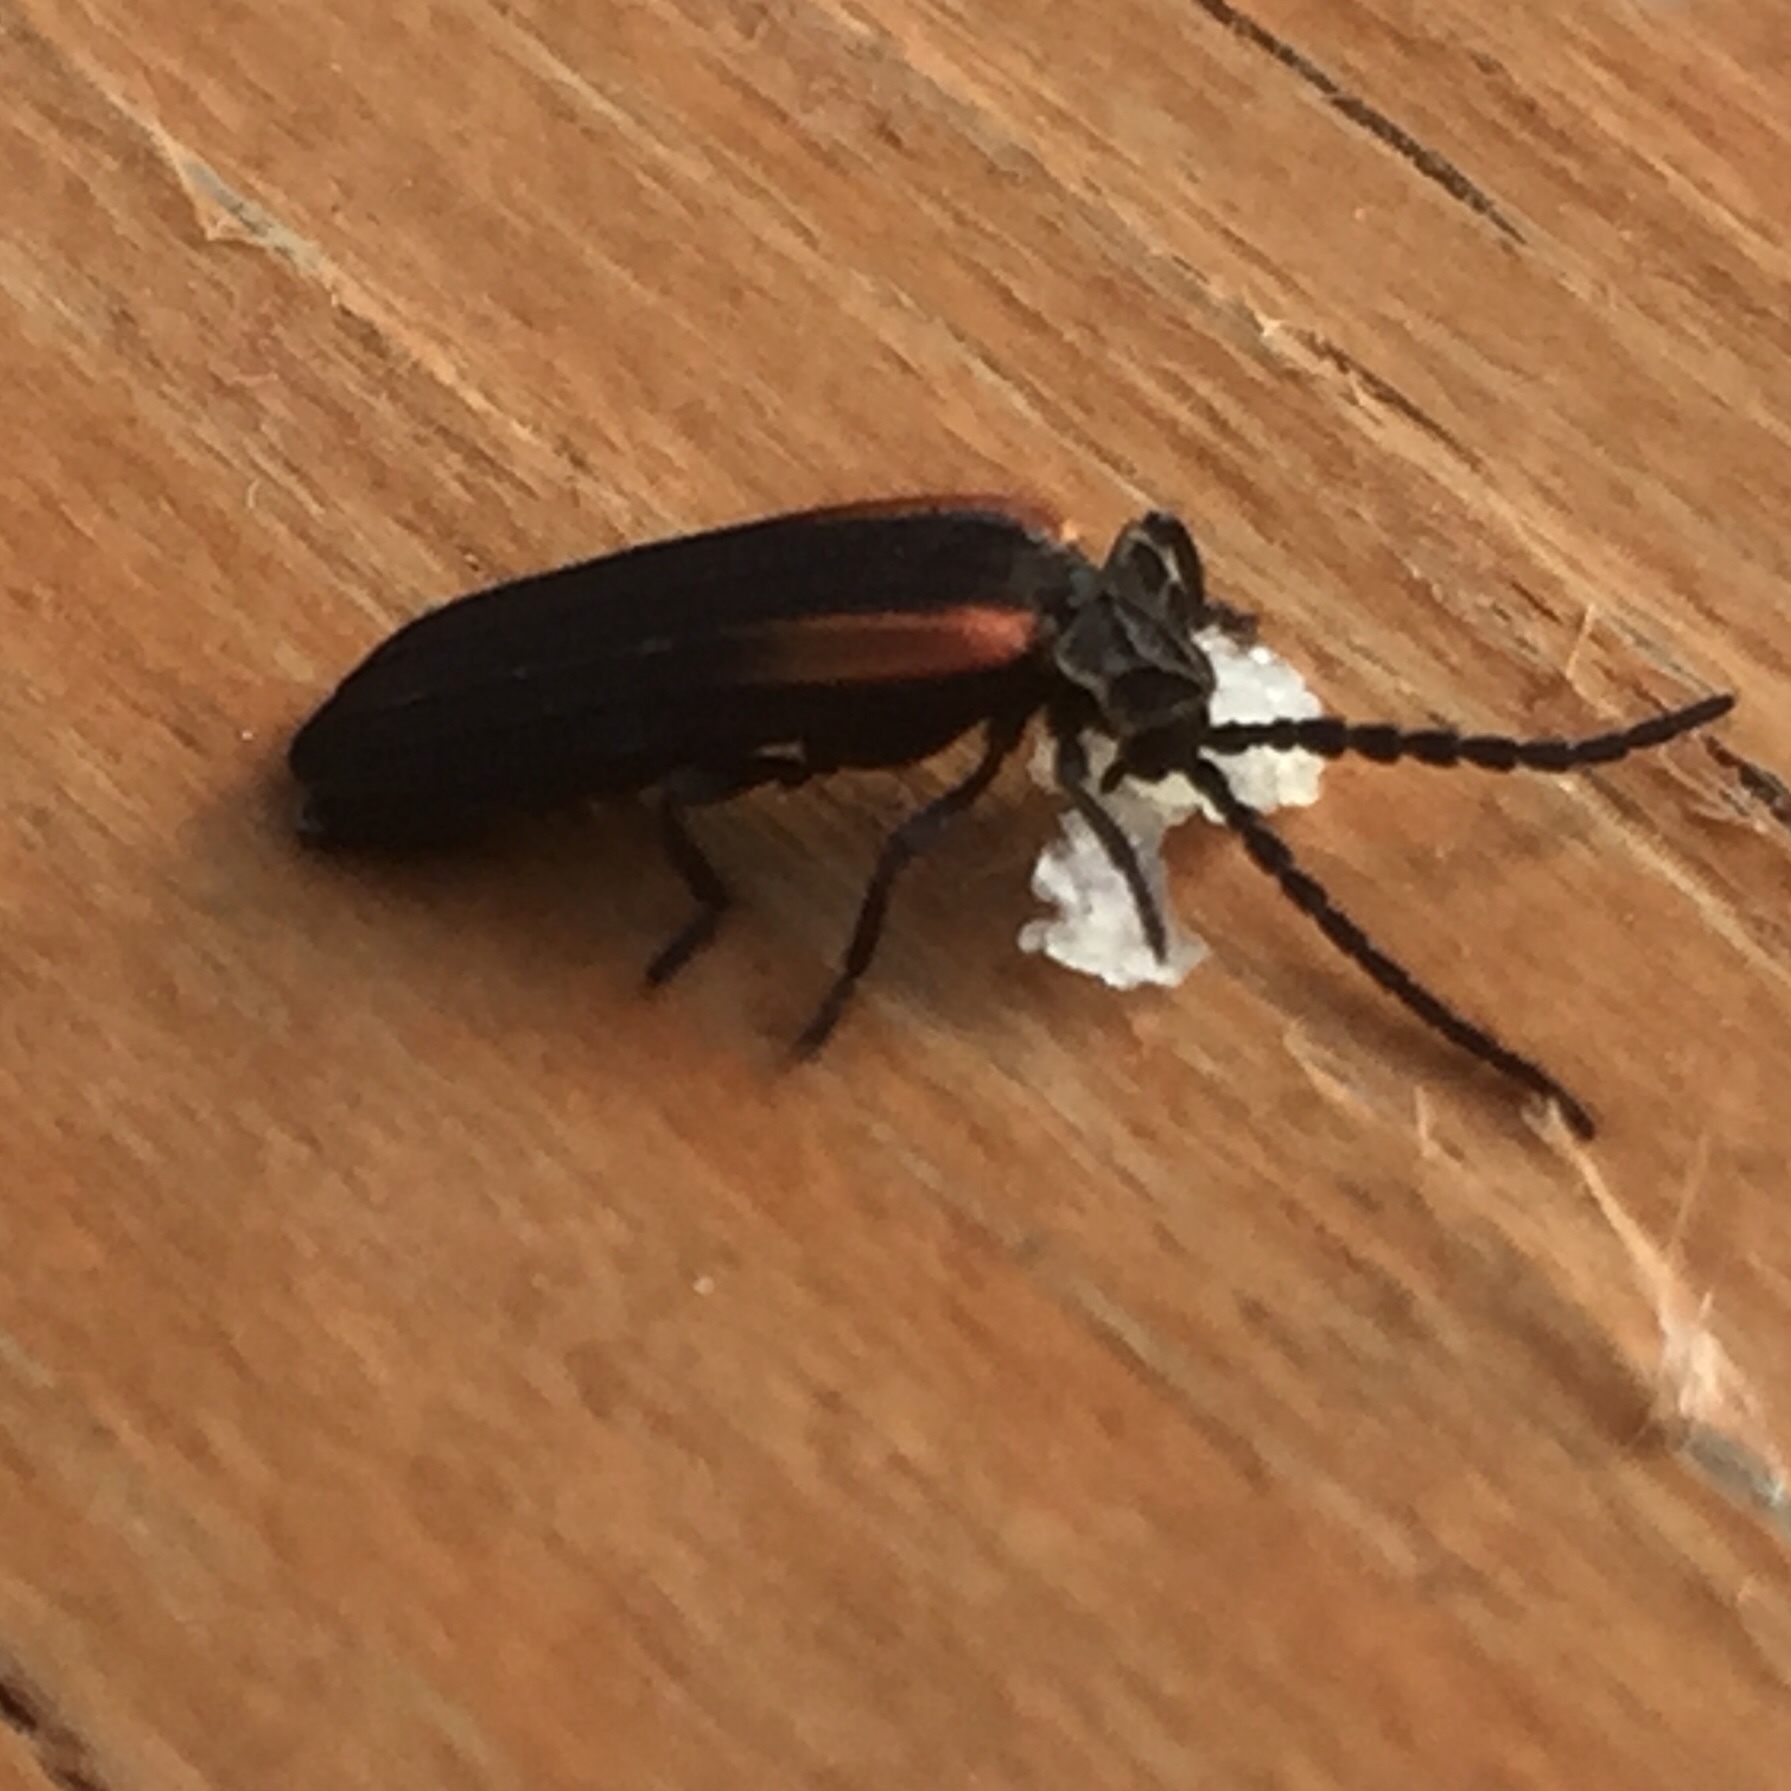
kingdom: Animalia
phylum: Arthropoda
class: Insecta
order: Coleoptera
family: Lycidae
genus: Greenarus
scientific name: Greenarus thoracicus
